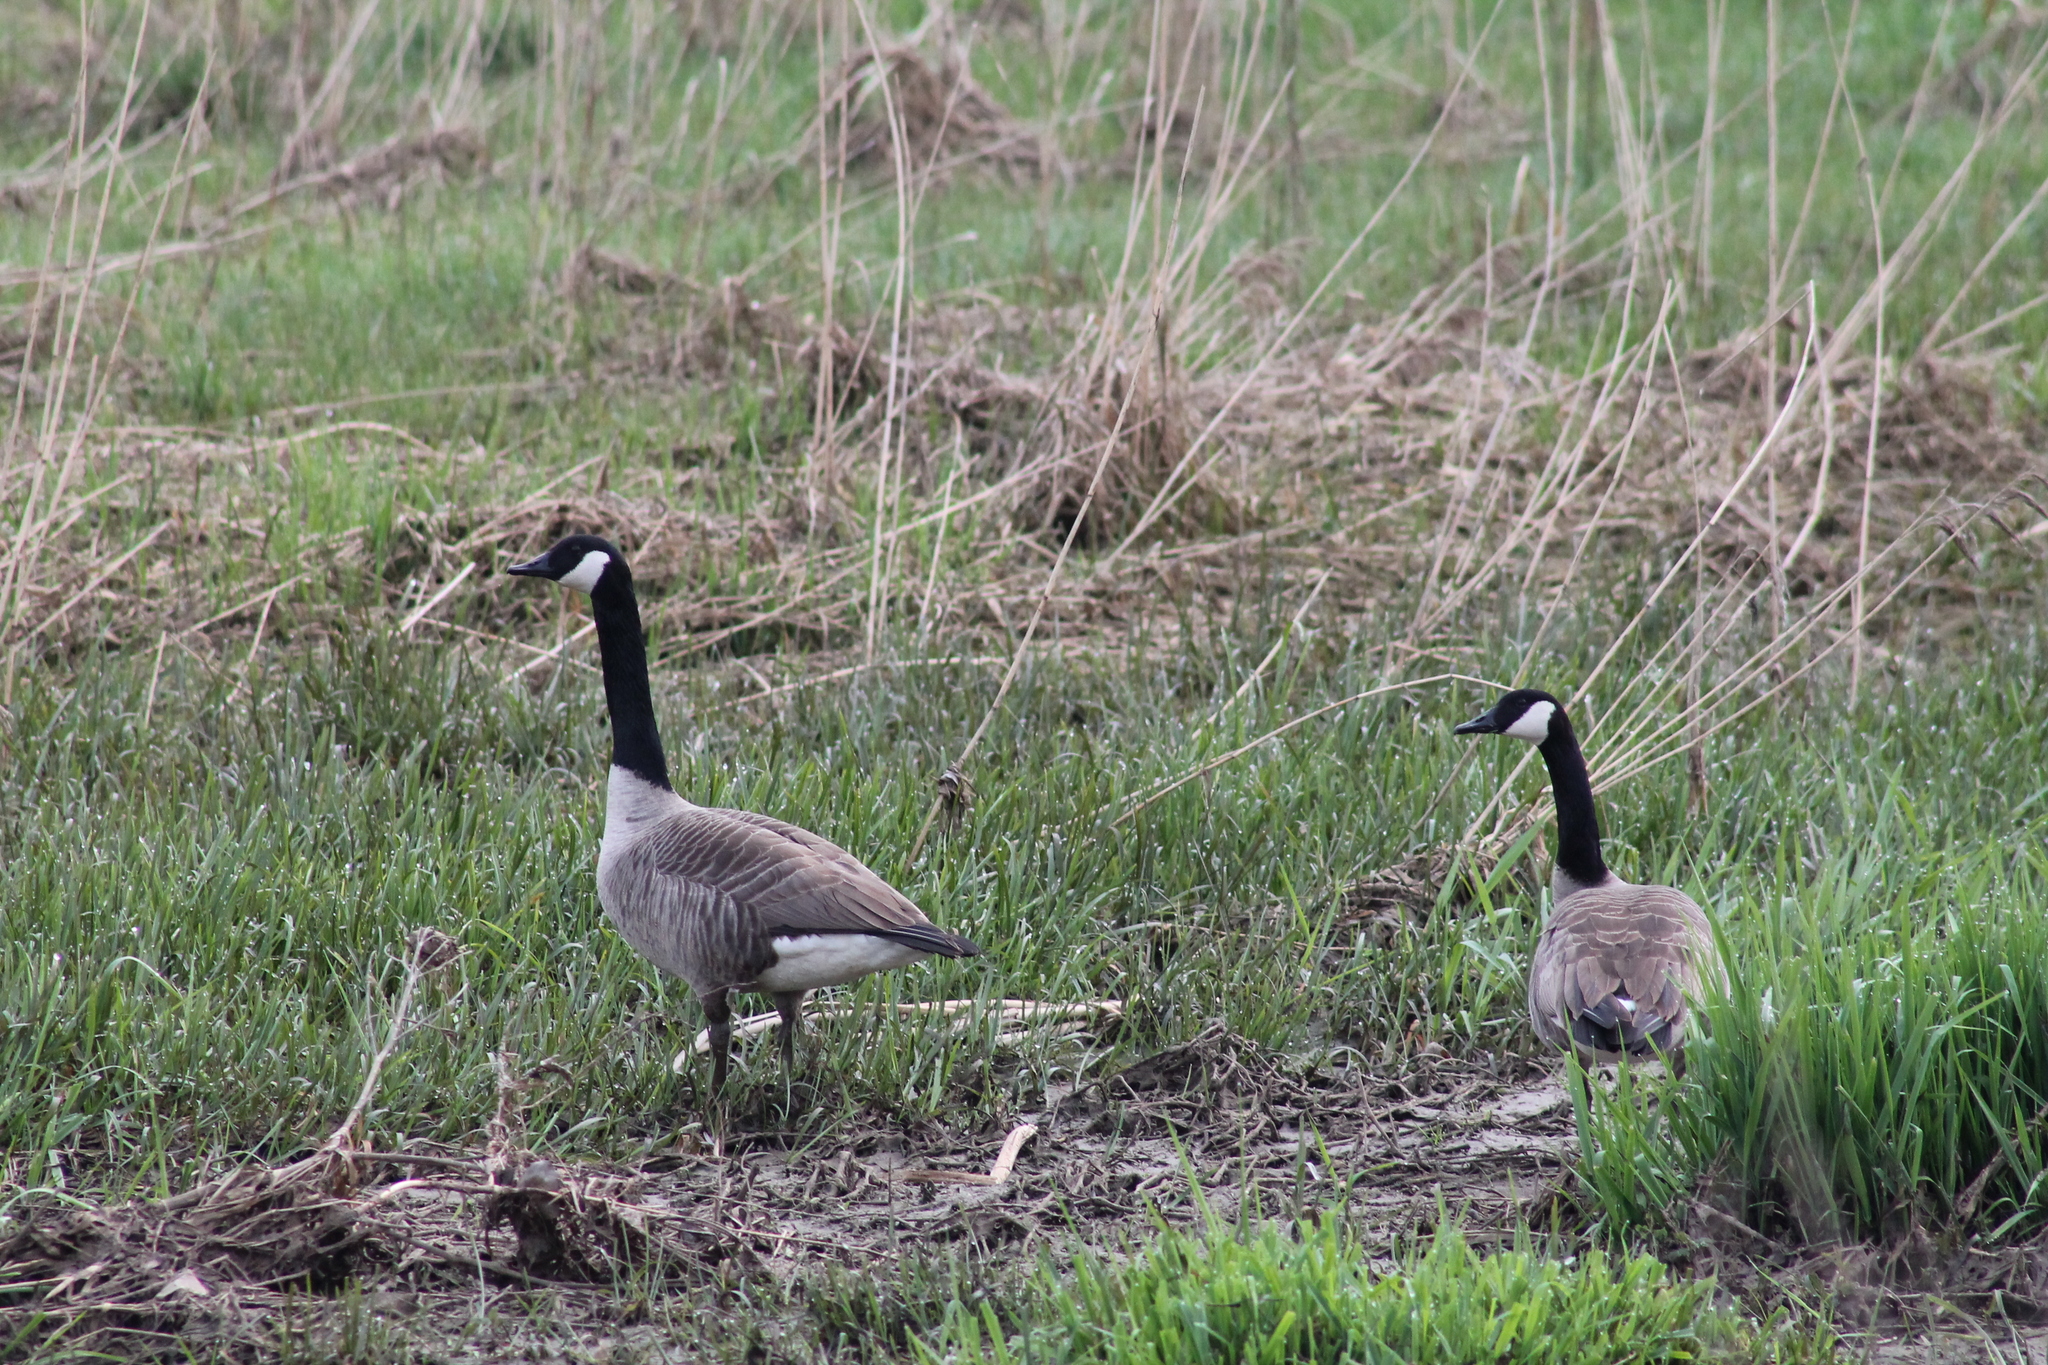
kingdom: Animalia
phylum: Chordata
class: Aves
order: Anseriformes
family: Anatidae
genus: Branta
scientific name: Branta canadensis
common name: Canada goose
